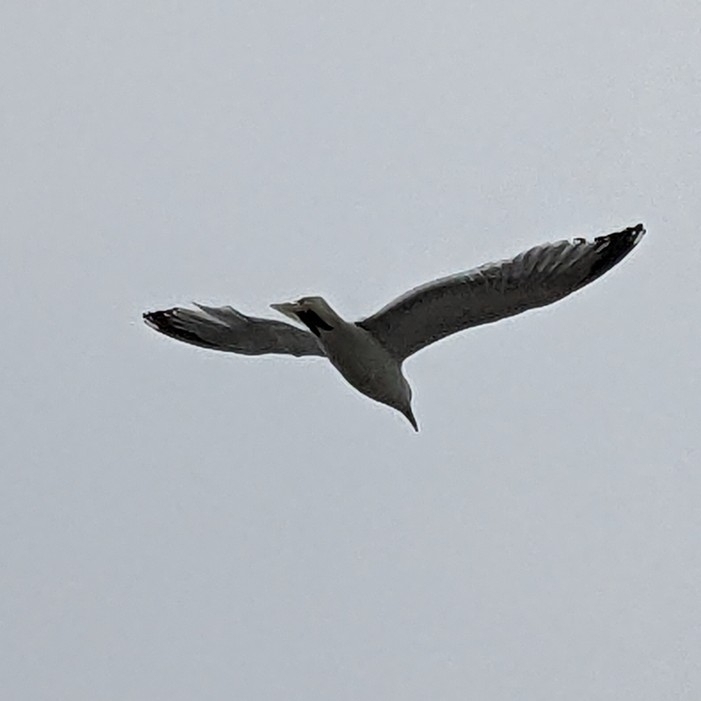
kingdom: Animalia
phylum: Chordata
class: Aves
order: Charadriiformes
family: Laridae
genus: Larus
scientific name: Larus delawarensis
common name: Ring-billed gull
